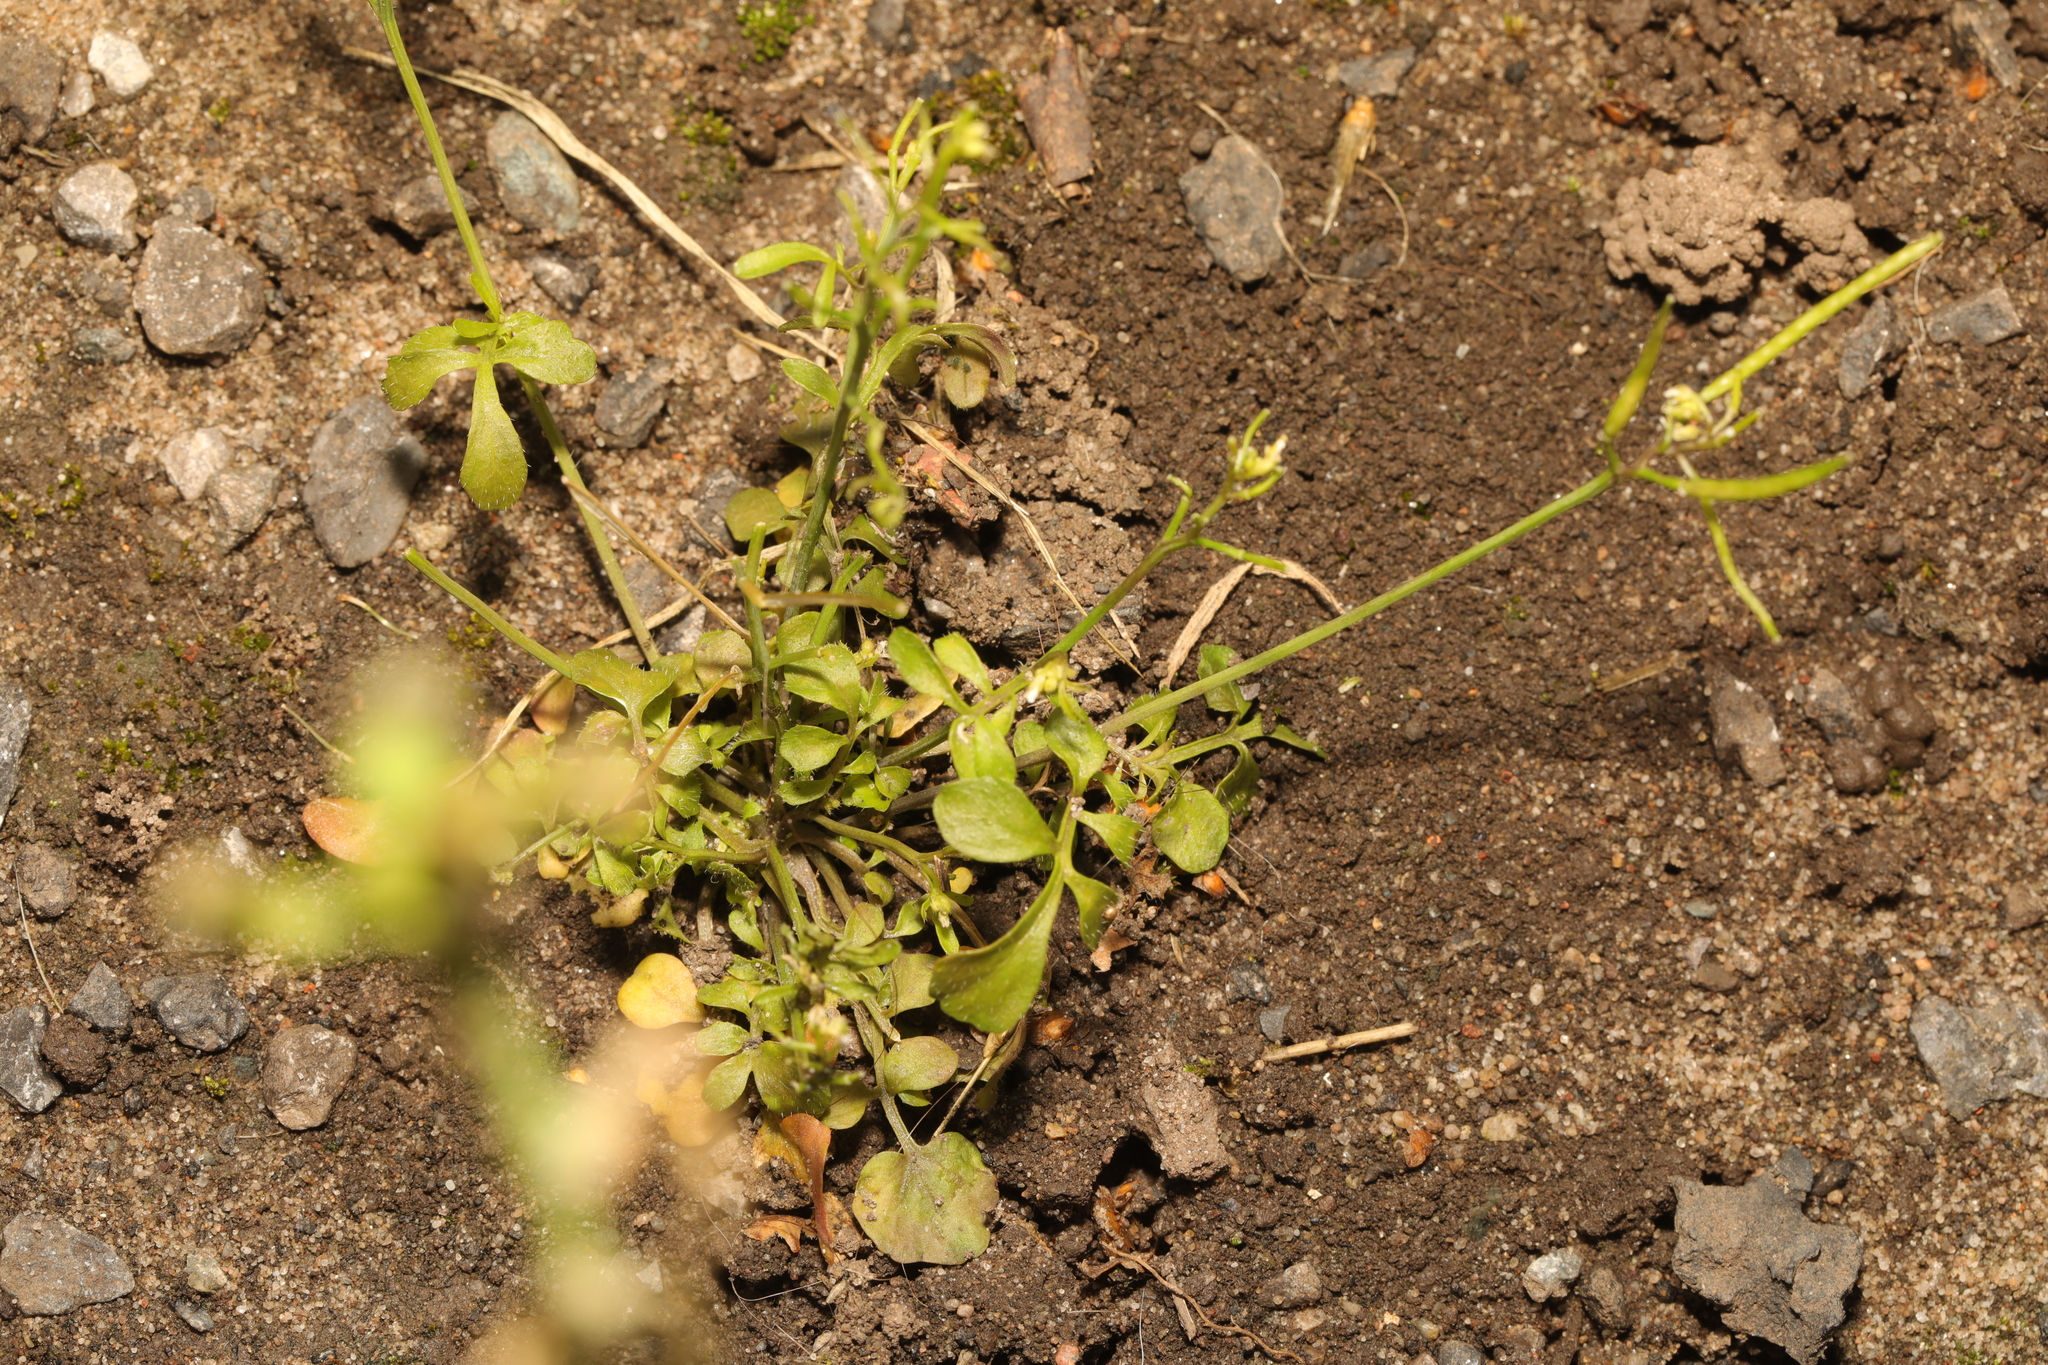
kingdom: Plantae
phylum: Tracheophyta
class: Magnoliopsida
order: Brassicales
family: Brassicaceae
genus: Cardamine
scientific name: Cardamine hirsuta
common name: Hairy bittercress
